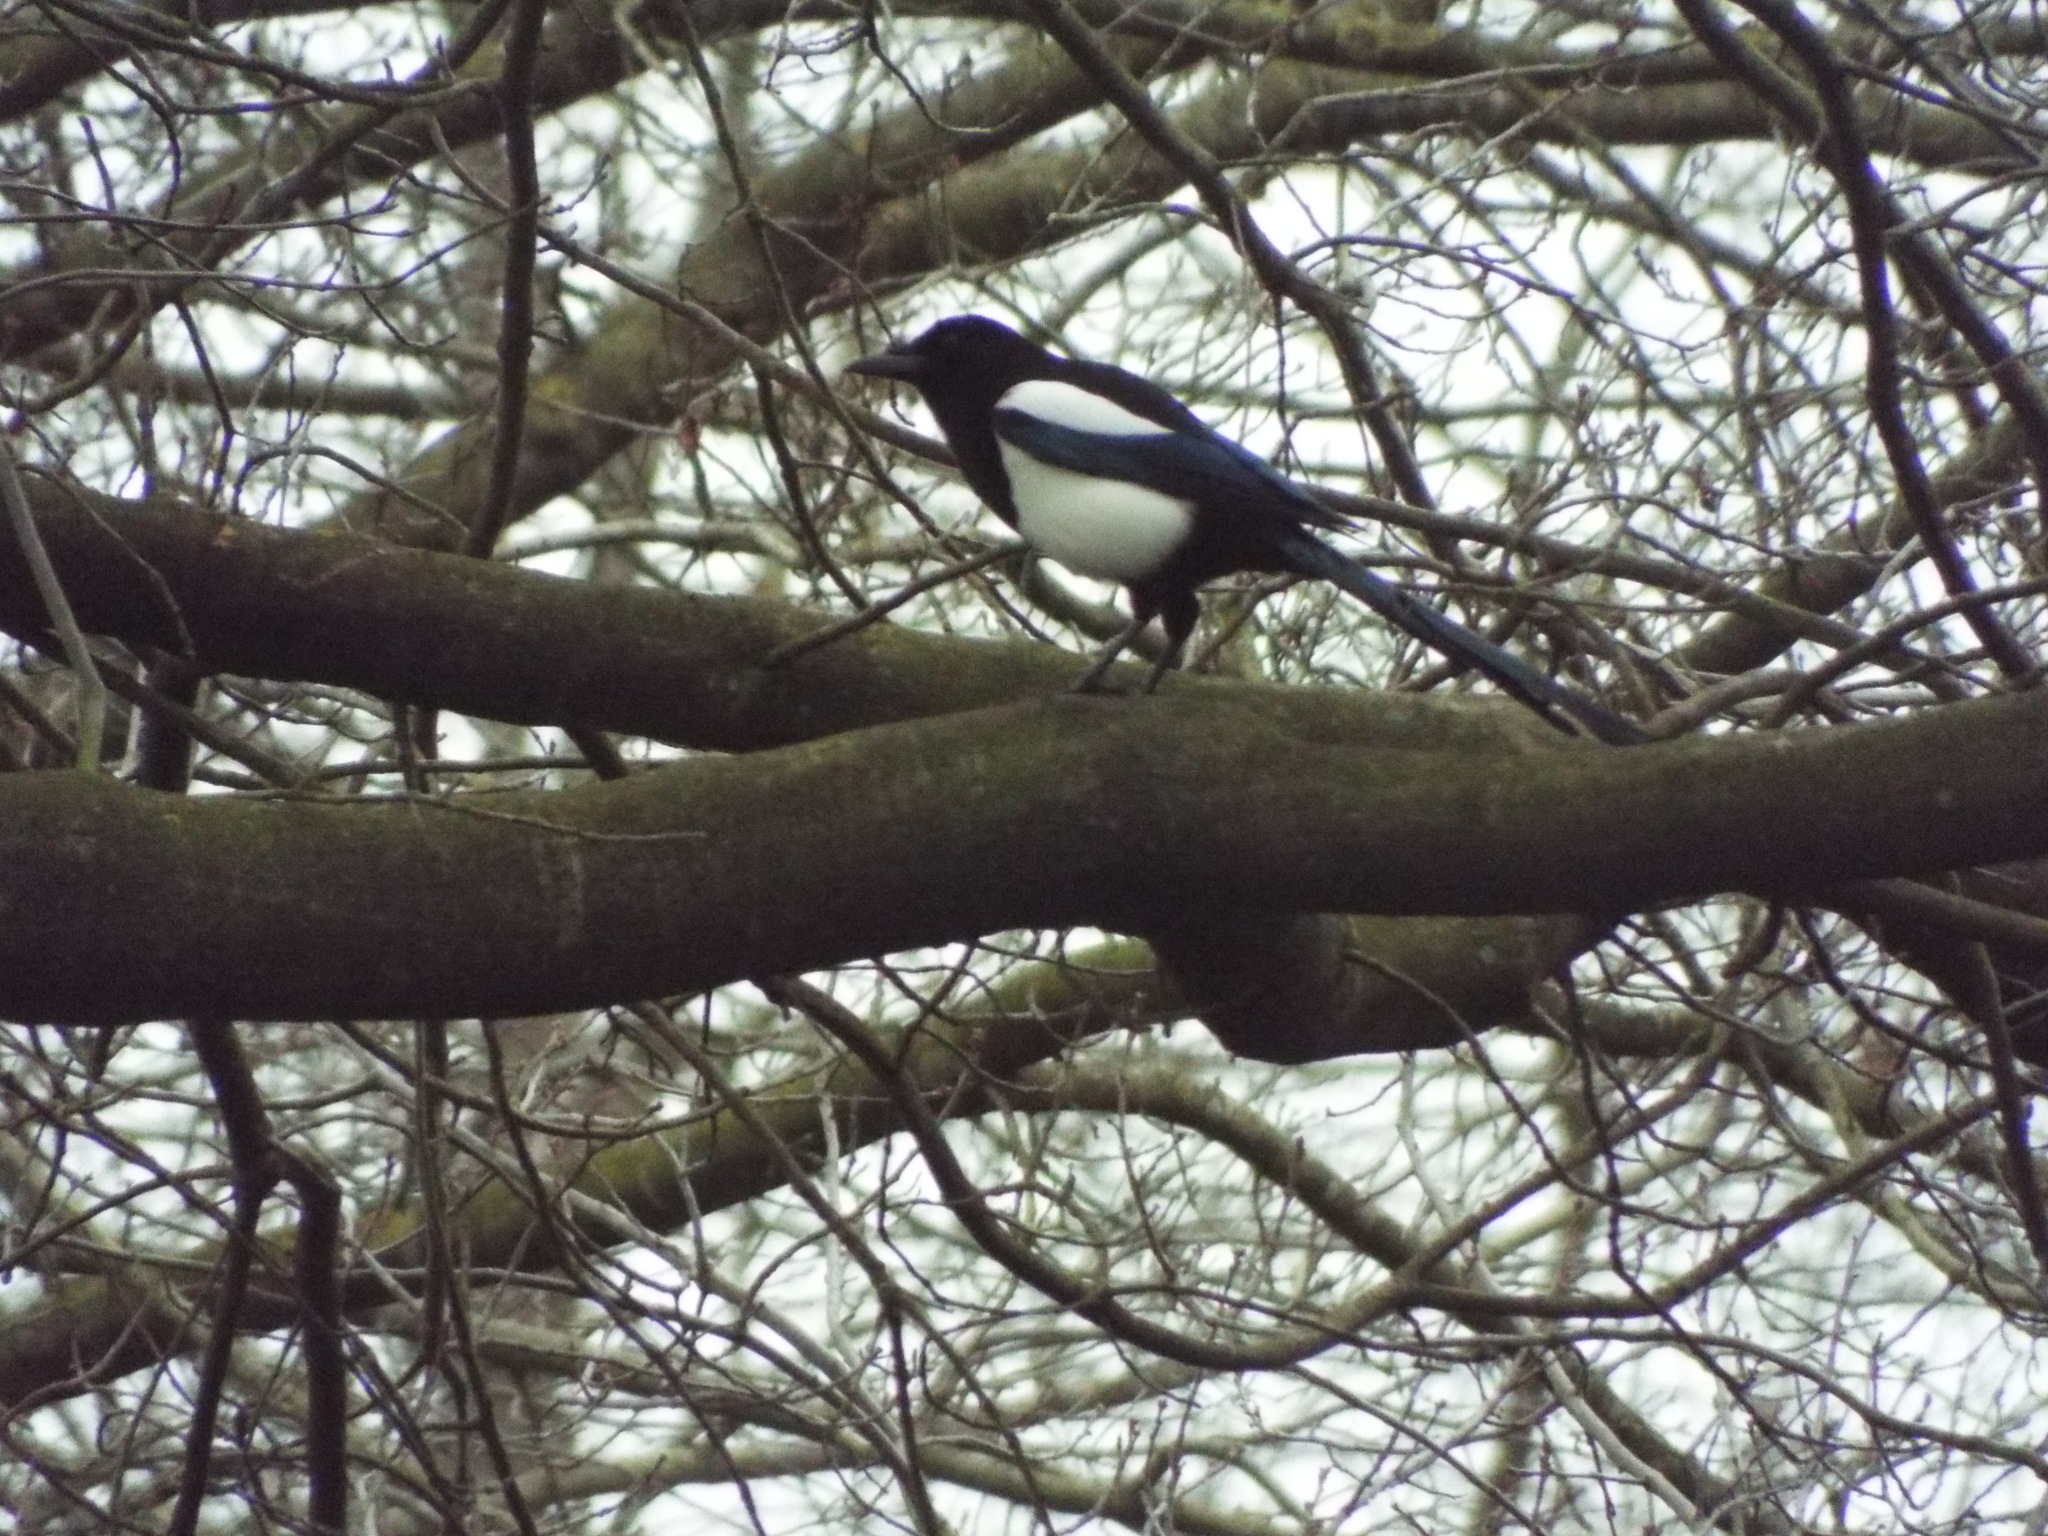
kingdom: Animalia
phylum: Chordata
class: Aves
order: Passeriformes
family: Corvidae
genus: Pica
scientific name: Pica pica
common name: Eurasian magpie
